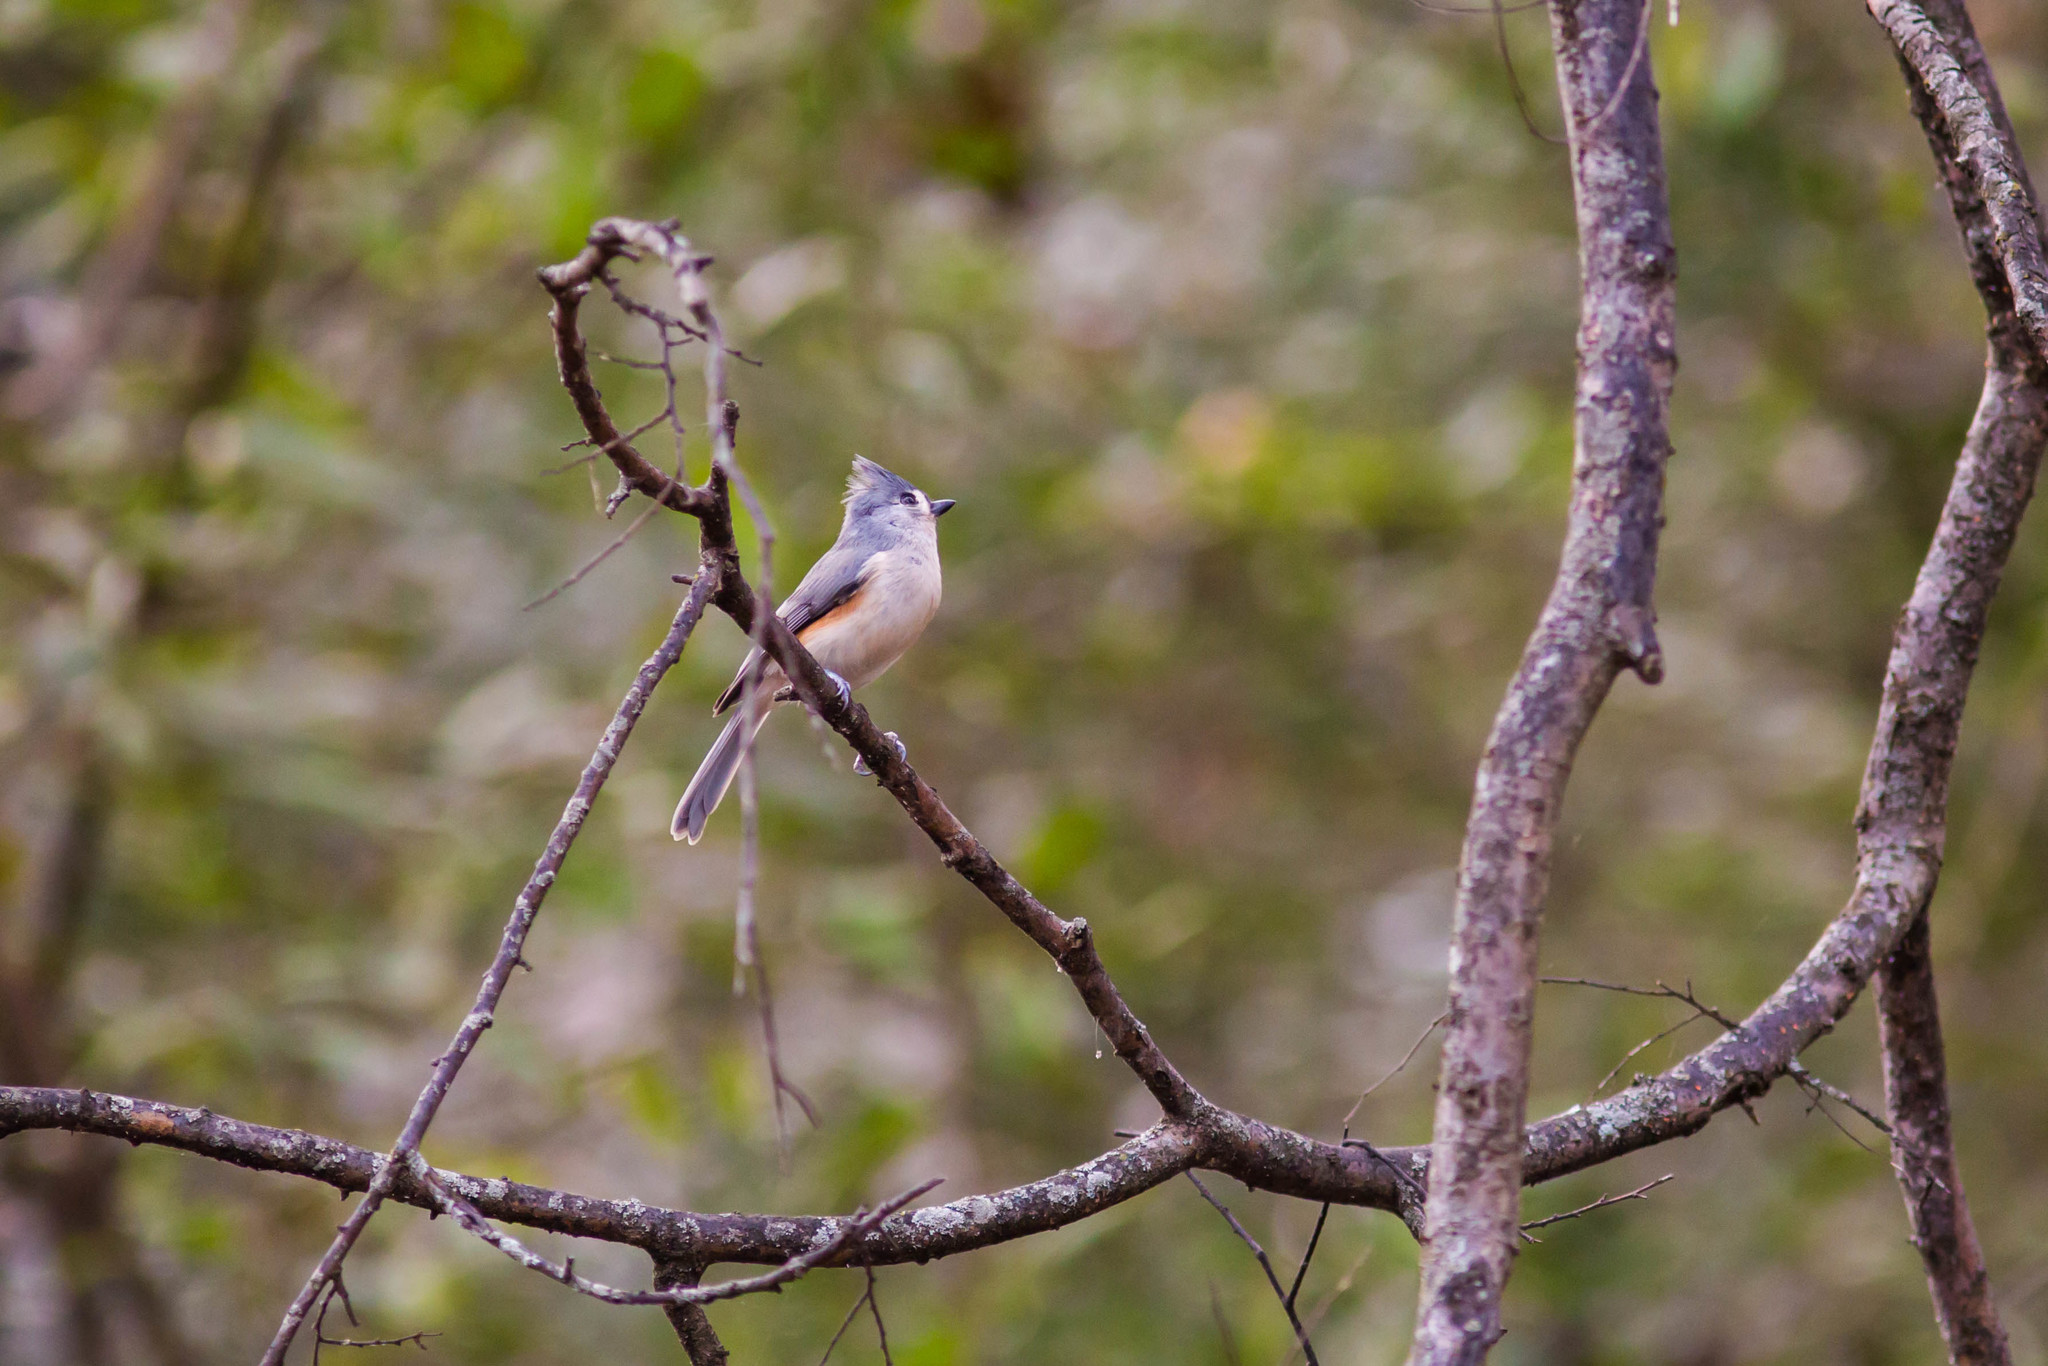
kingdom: Animalia
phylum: Chordata
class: Aves
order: Passeriformes
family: Paridae
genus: Baeolophus
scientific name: Baeolophus bicolor
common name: Tufted titmouse
